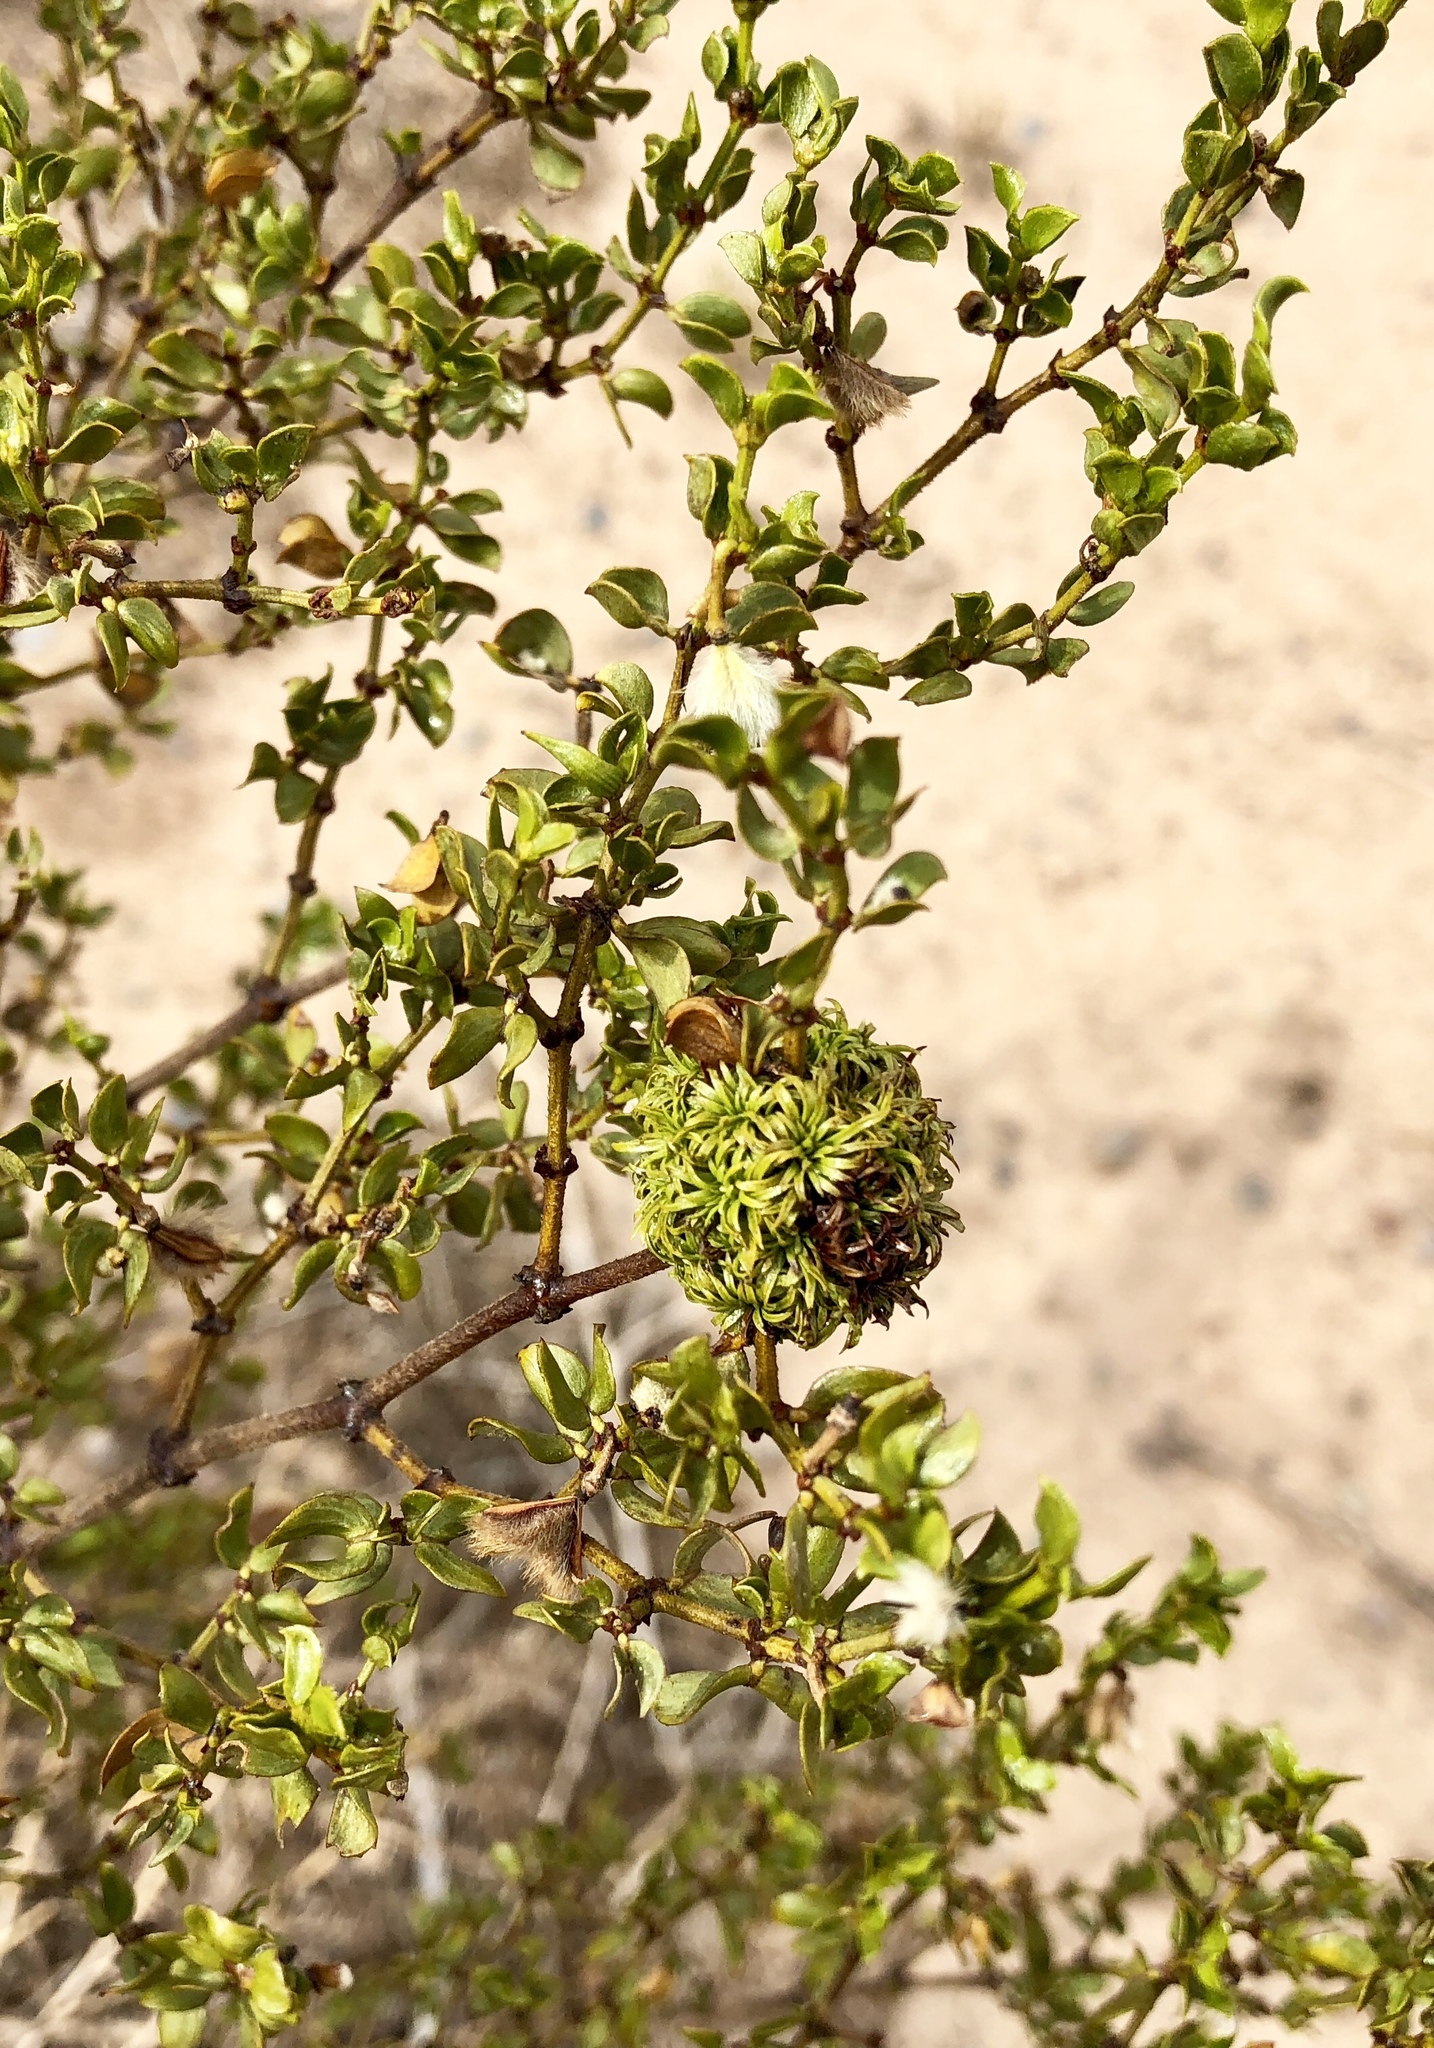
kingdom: Animalia
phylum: Arthropoda
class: Insecta
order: Diptera
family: Cecidomyiidae
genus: Asphondylia
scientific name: Asphondylia auripila
